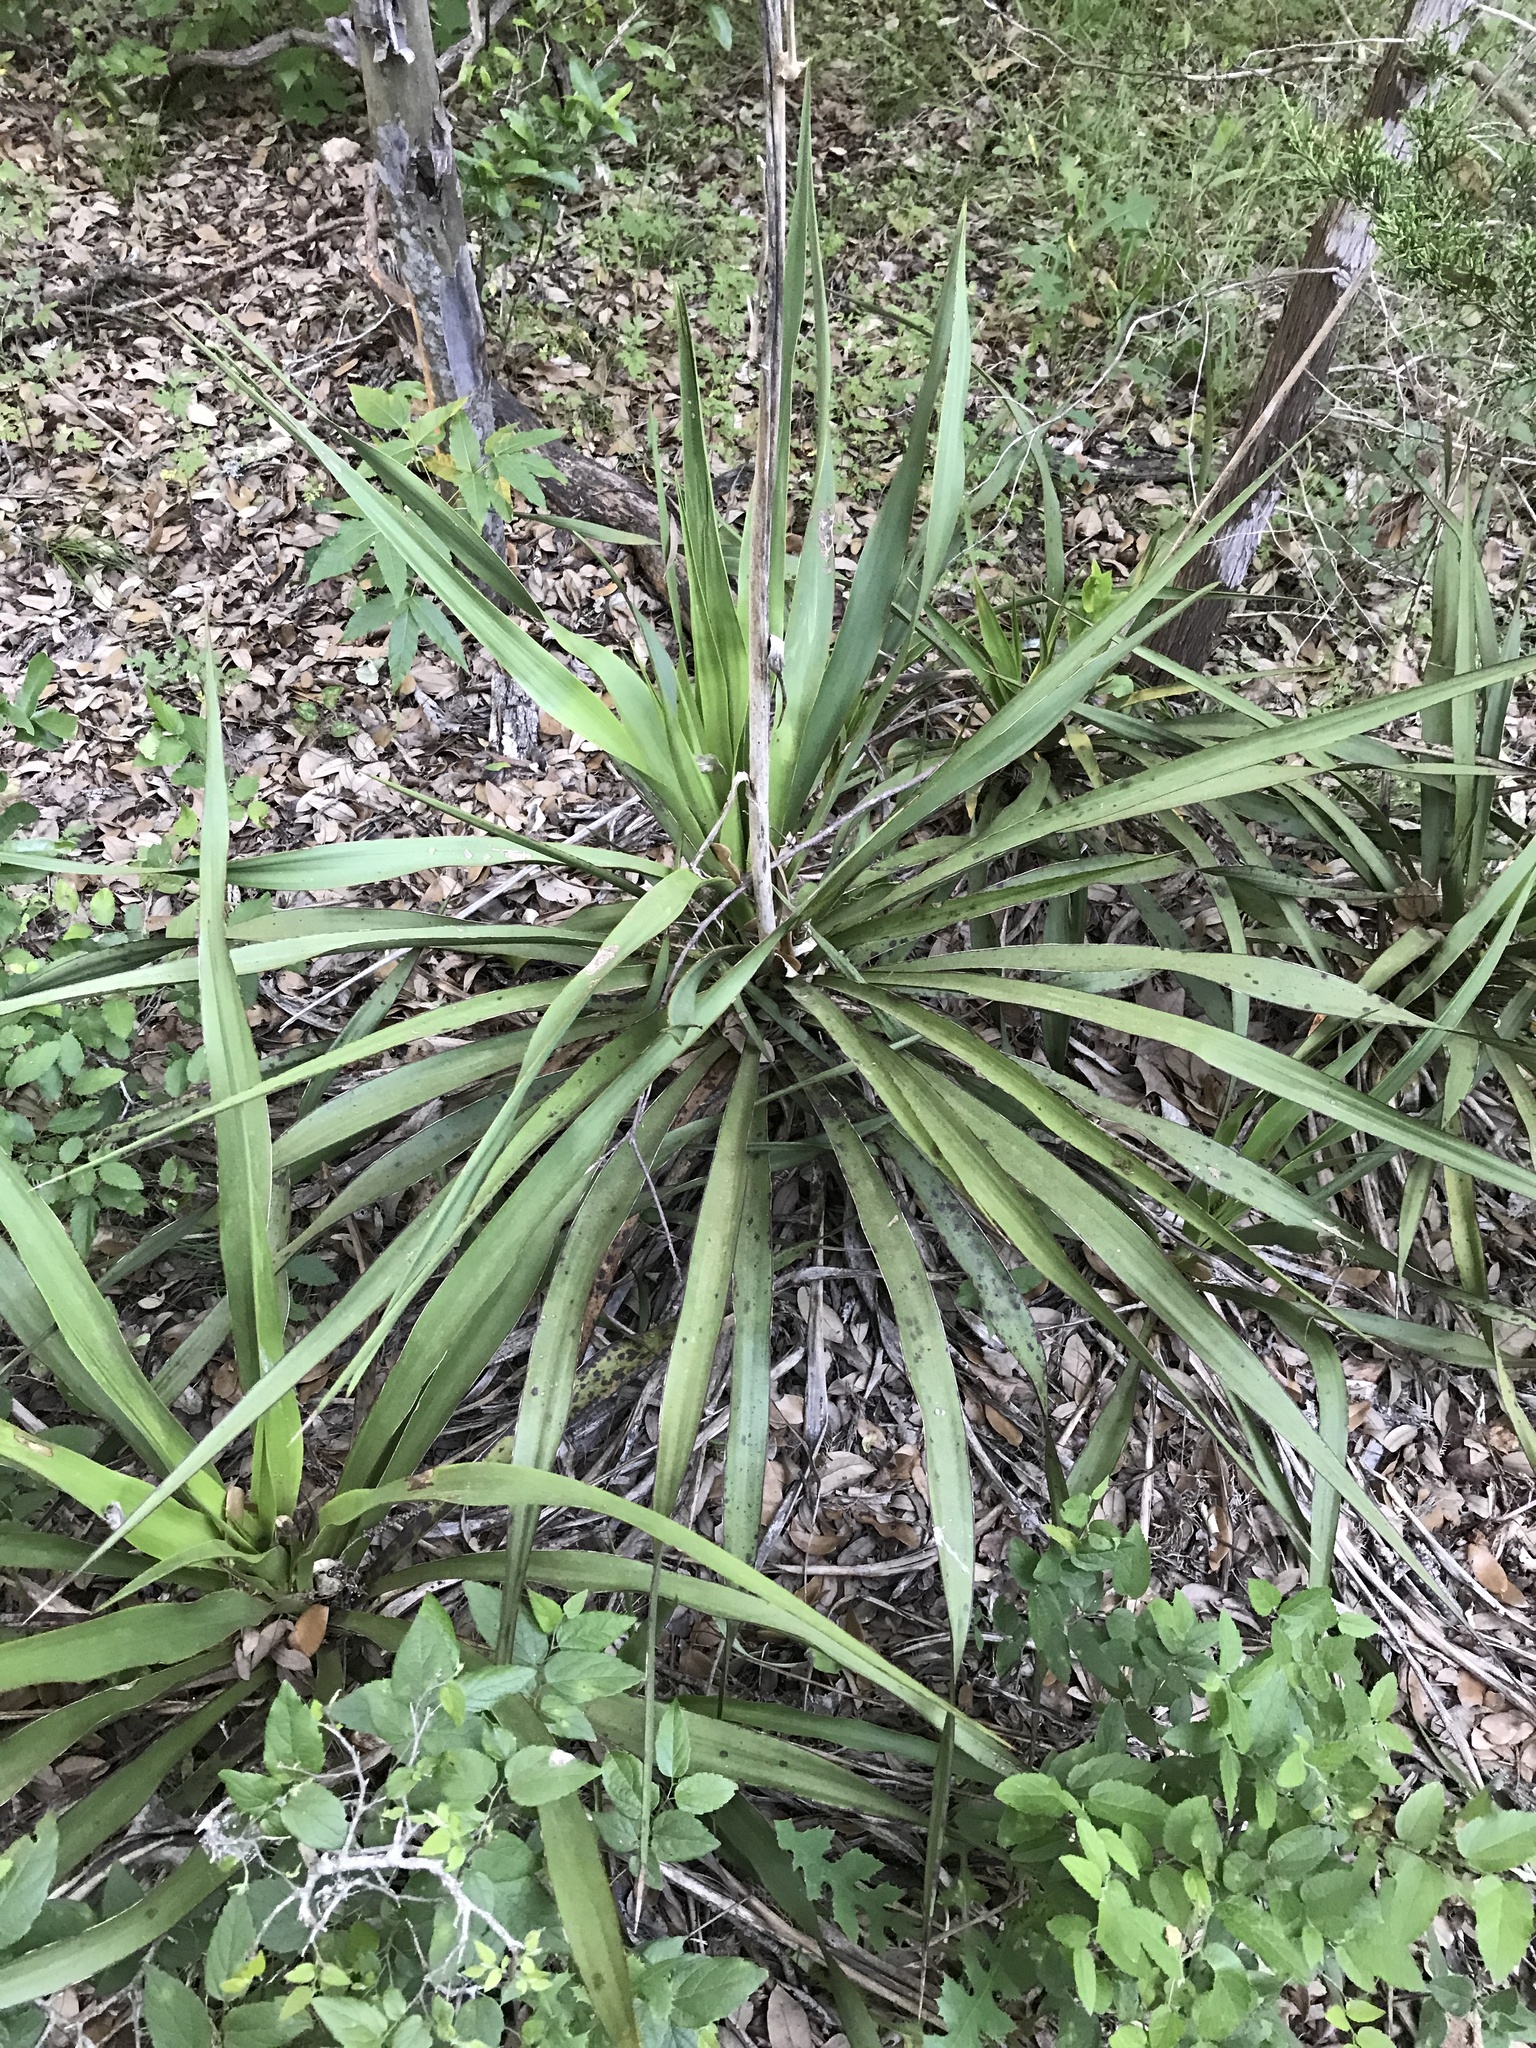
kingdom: Plantae
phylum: Tracheophyta
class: Liliopsida
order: Asparagales
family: Asparagaceae
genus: Yucca
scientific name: Yucca rupicola
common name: Twisted-leaf spanish-dagger
